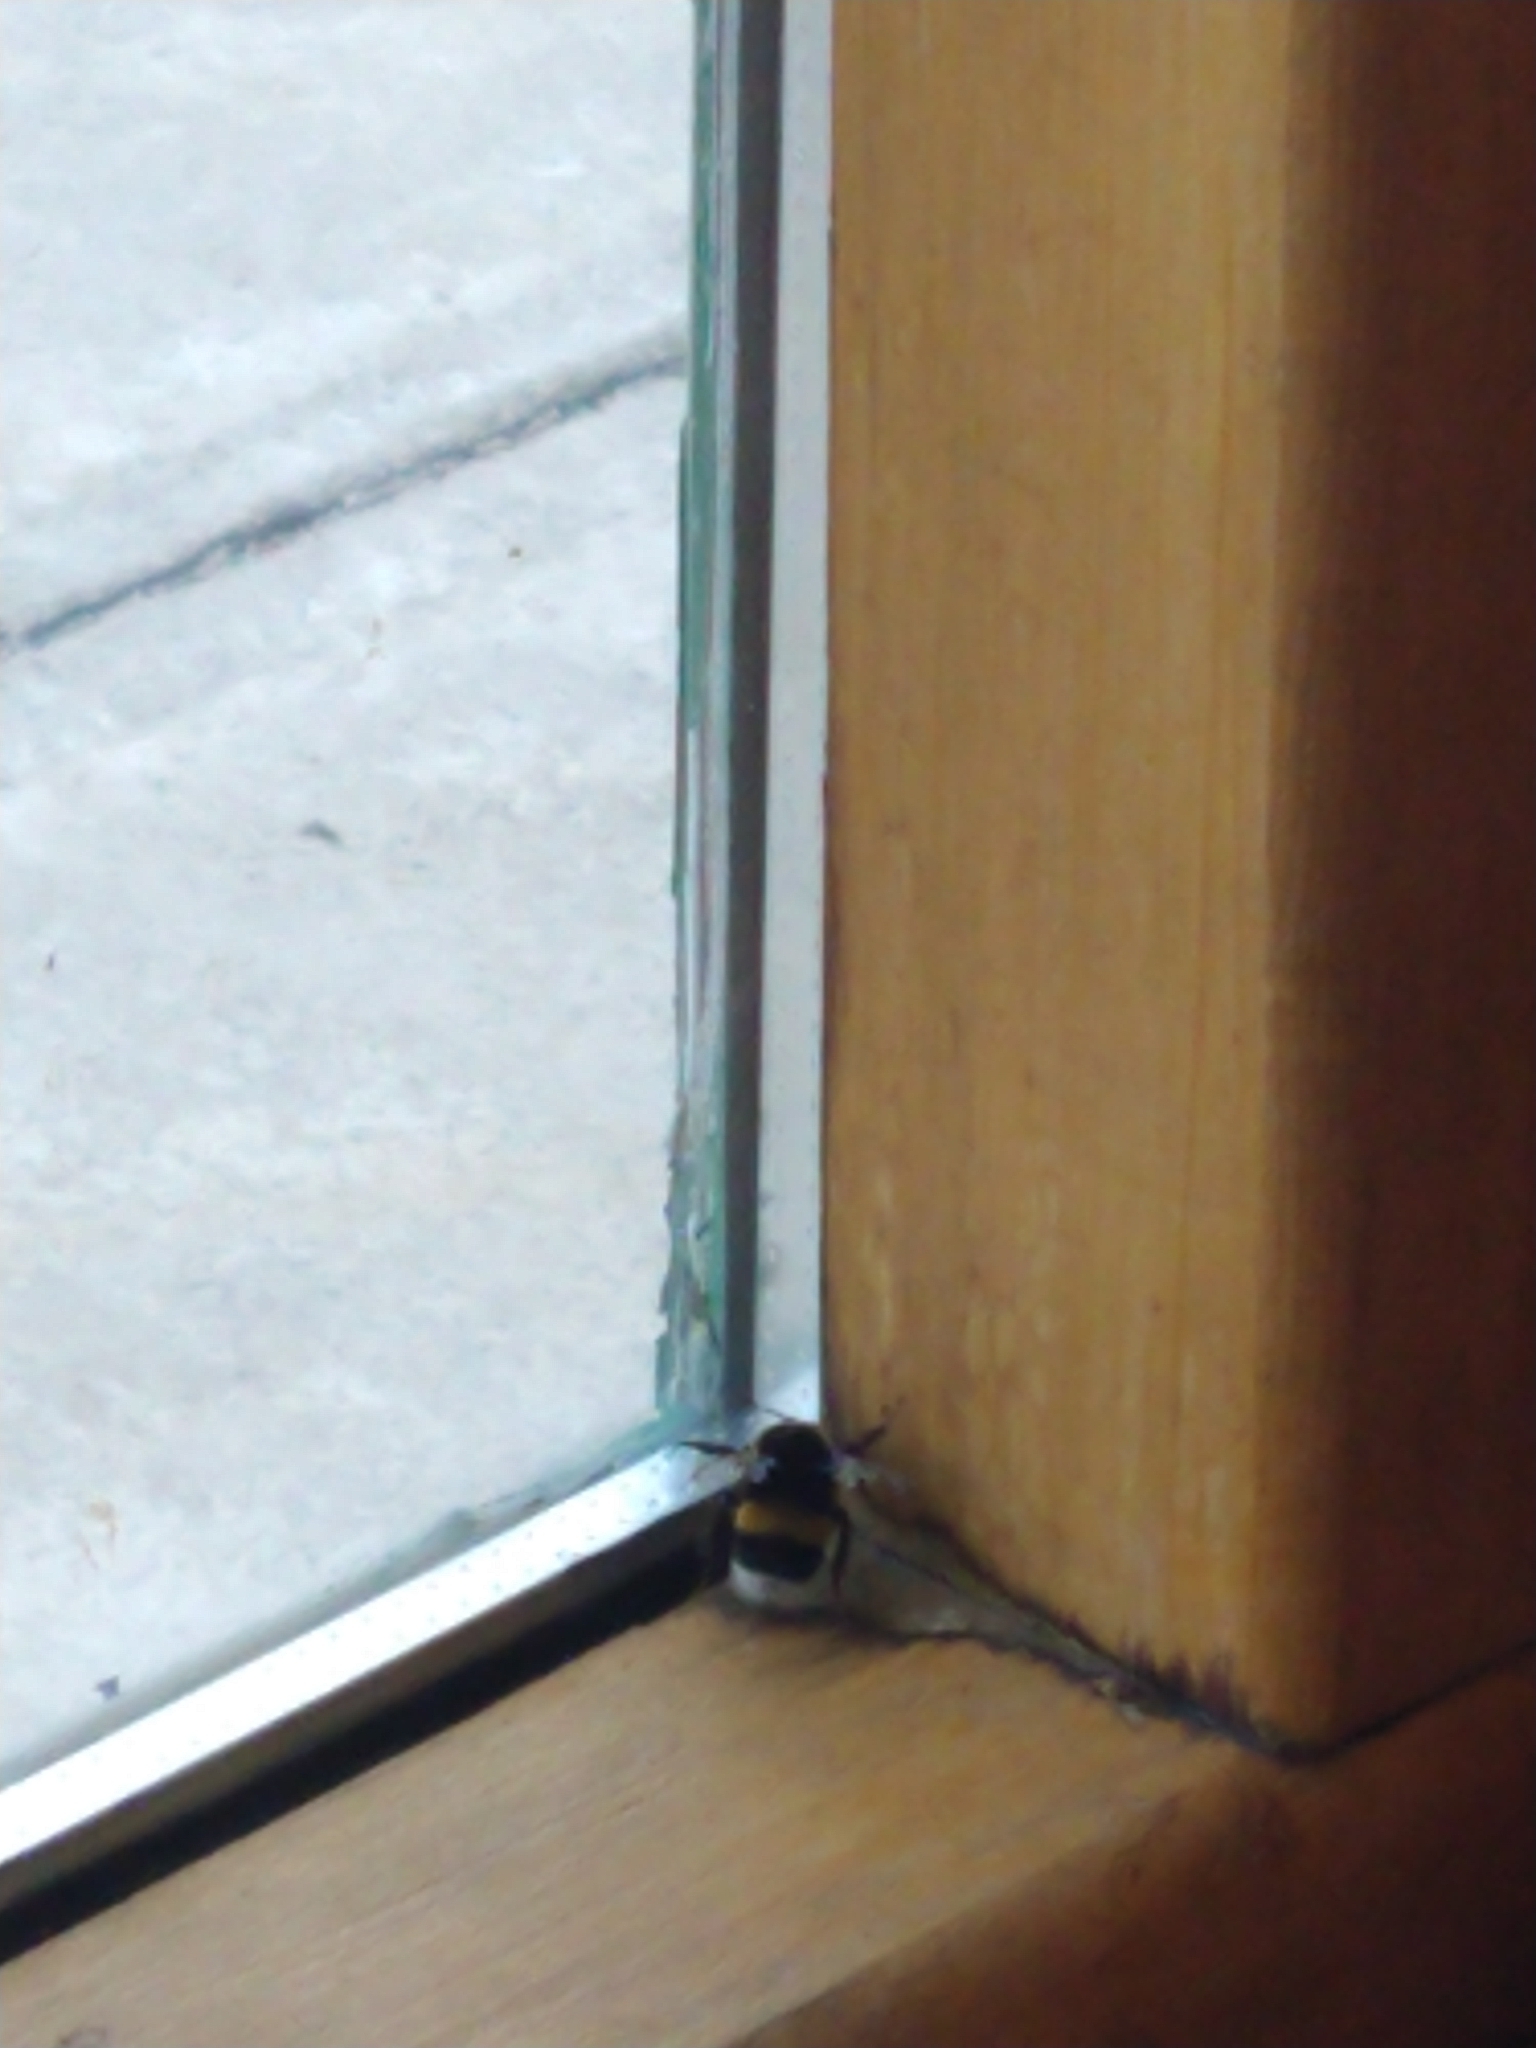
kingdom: Animalia
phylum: Arthropoda
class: Insecta
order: Hymenoptera
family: Apidae
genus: Bombus
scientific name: Bombus terrestris
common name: Buff-tailed bumblebee
